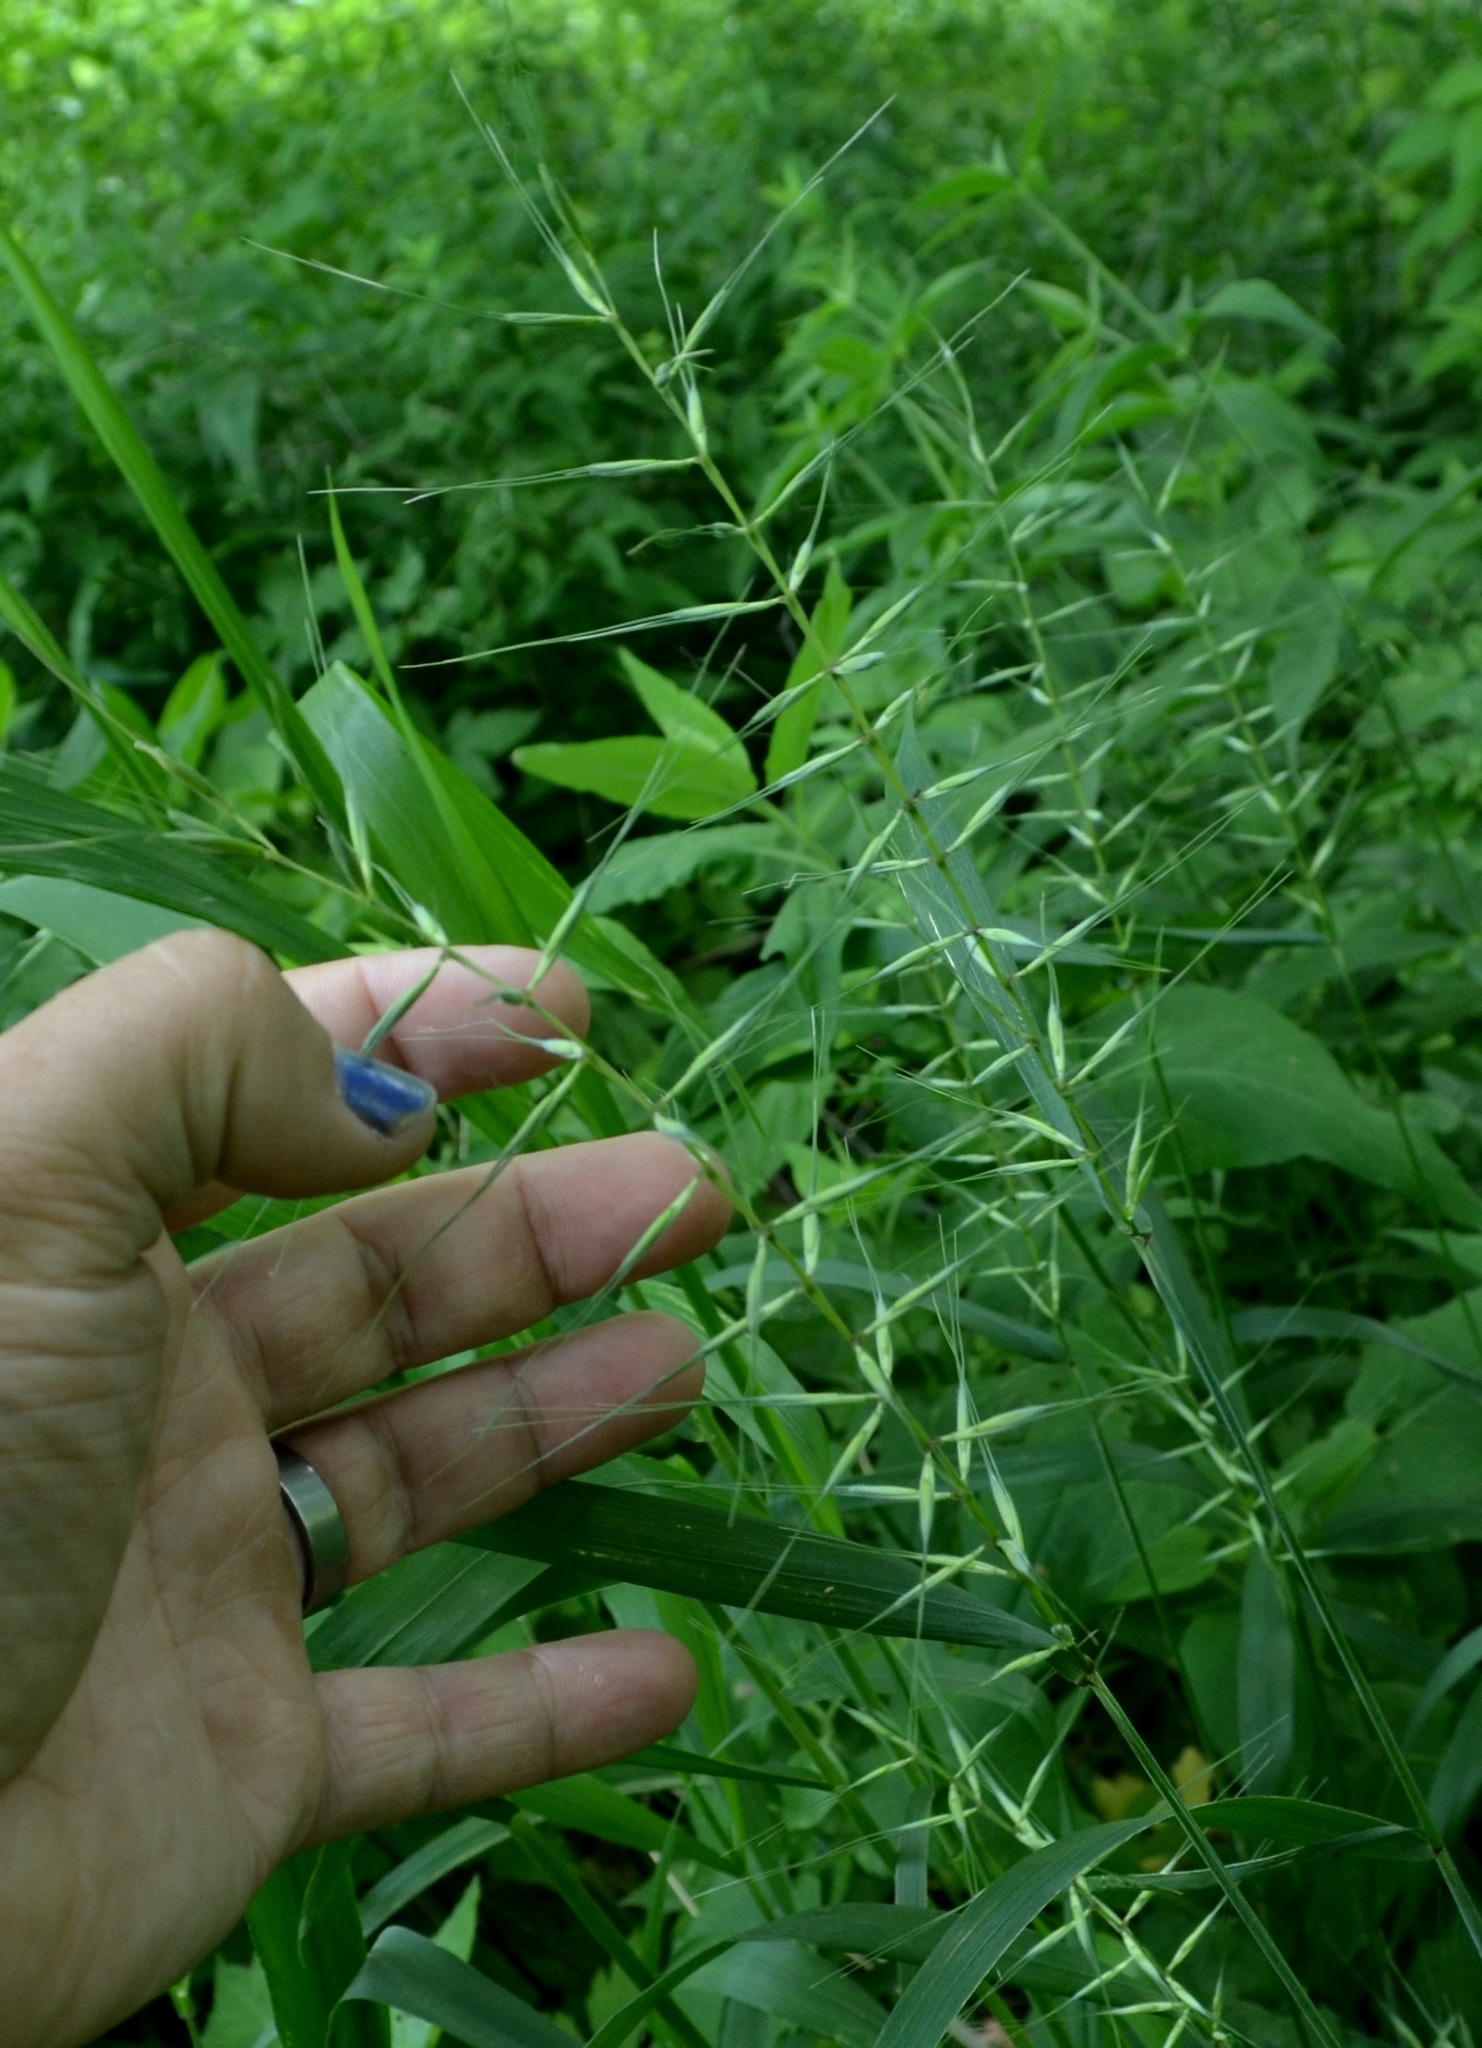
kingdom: Plantae
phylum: Tracheophyta
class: Liliopsida
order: Poales
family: Poaceae
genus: Elymus
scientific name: Elymus hystrix
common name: Bottlebrush grass
